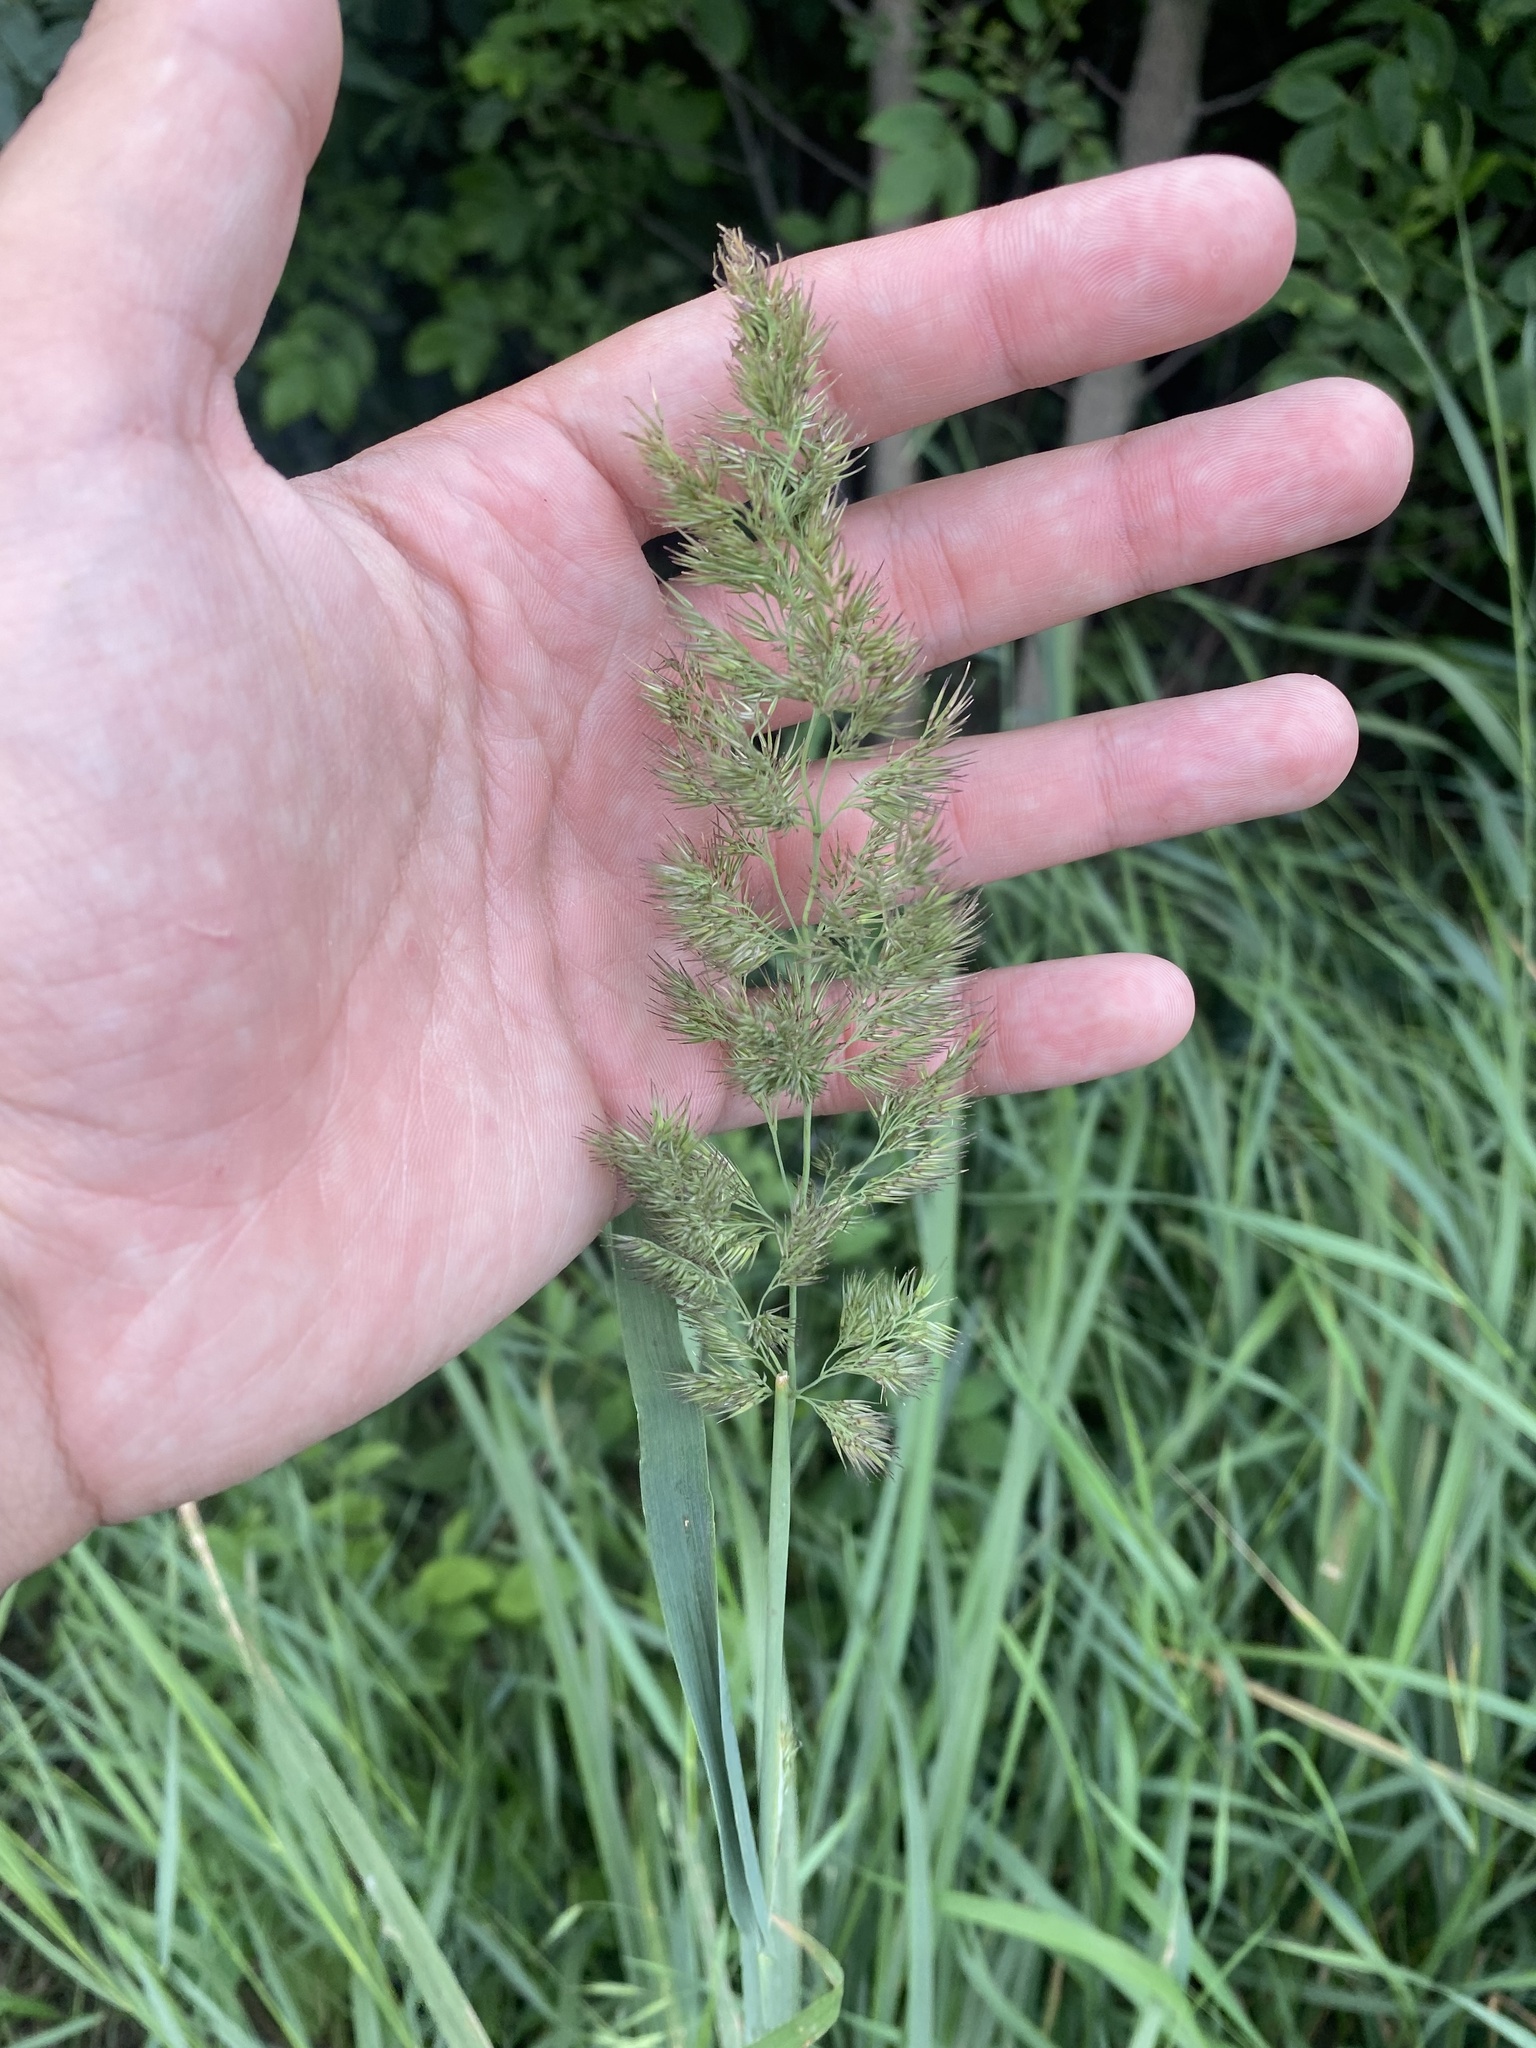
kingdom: Plantae
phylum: Tracheophyta
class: Liliopsida
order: Poales
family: Poaceae
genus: Calamagrostis
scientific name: Calamagrostis epigejos
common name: Wood small-reed
